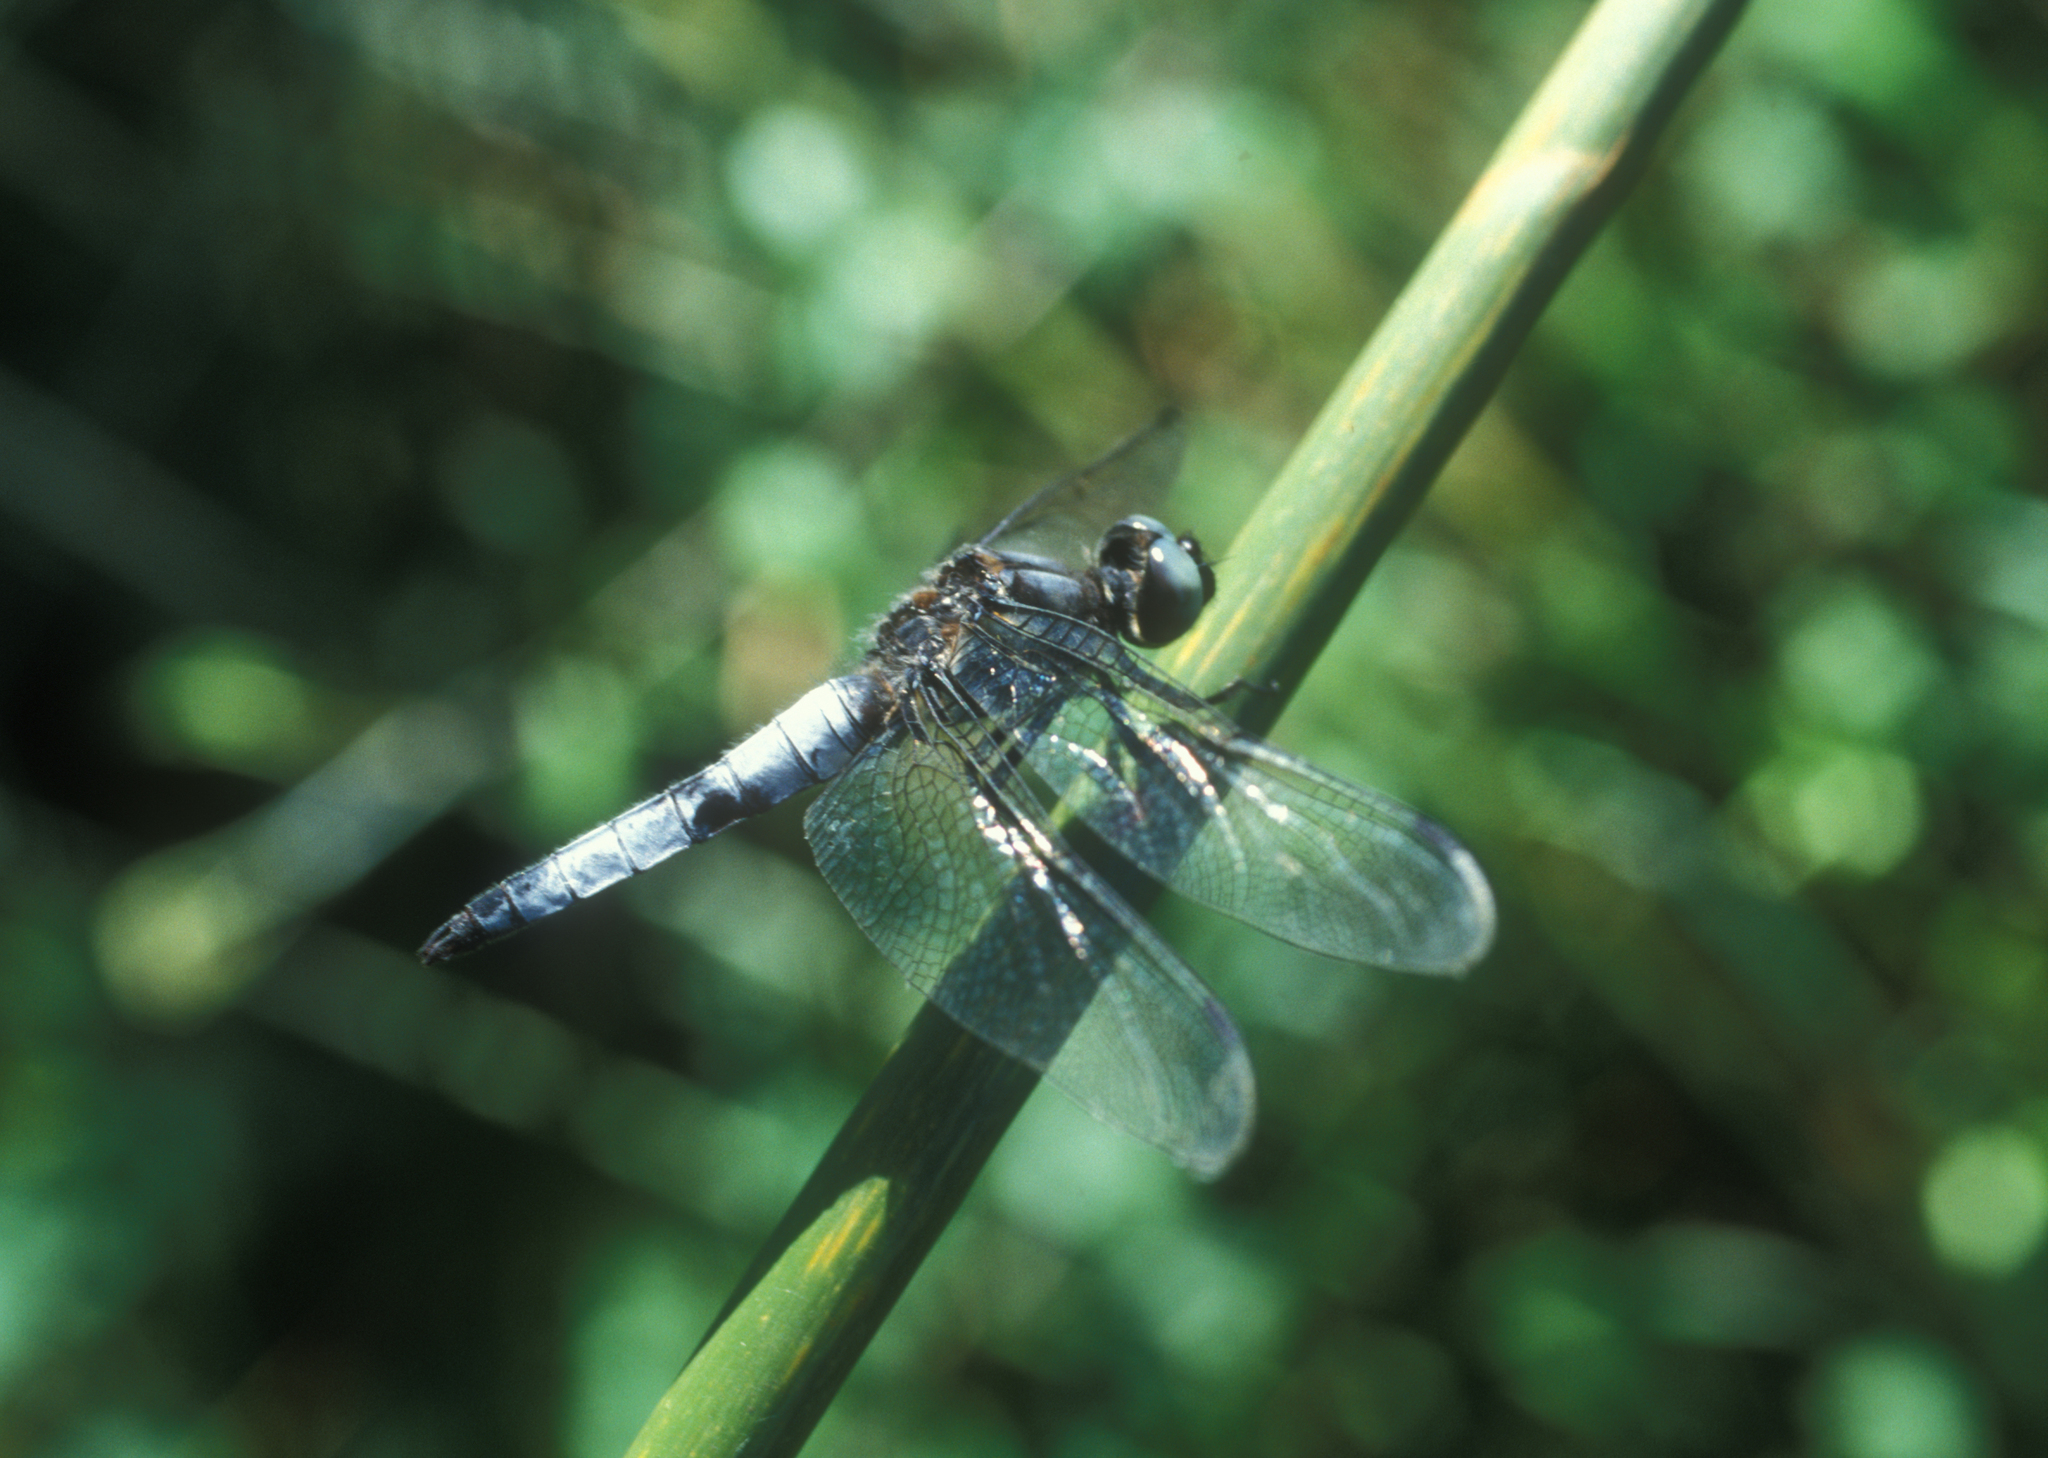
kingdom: Animalia
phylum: Arthropoda
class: Insecta
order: Odonata
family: Libellulidae
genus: Libellula
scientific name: Libellula fulva
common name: Blue chaser
